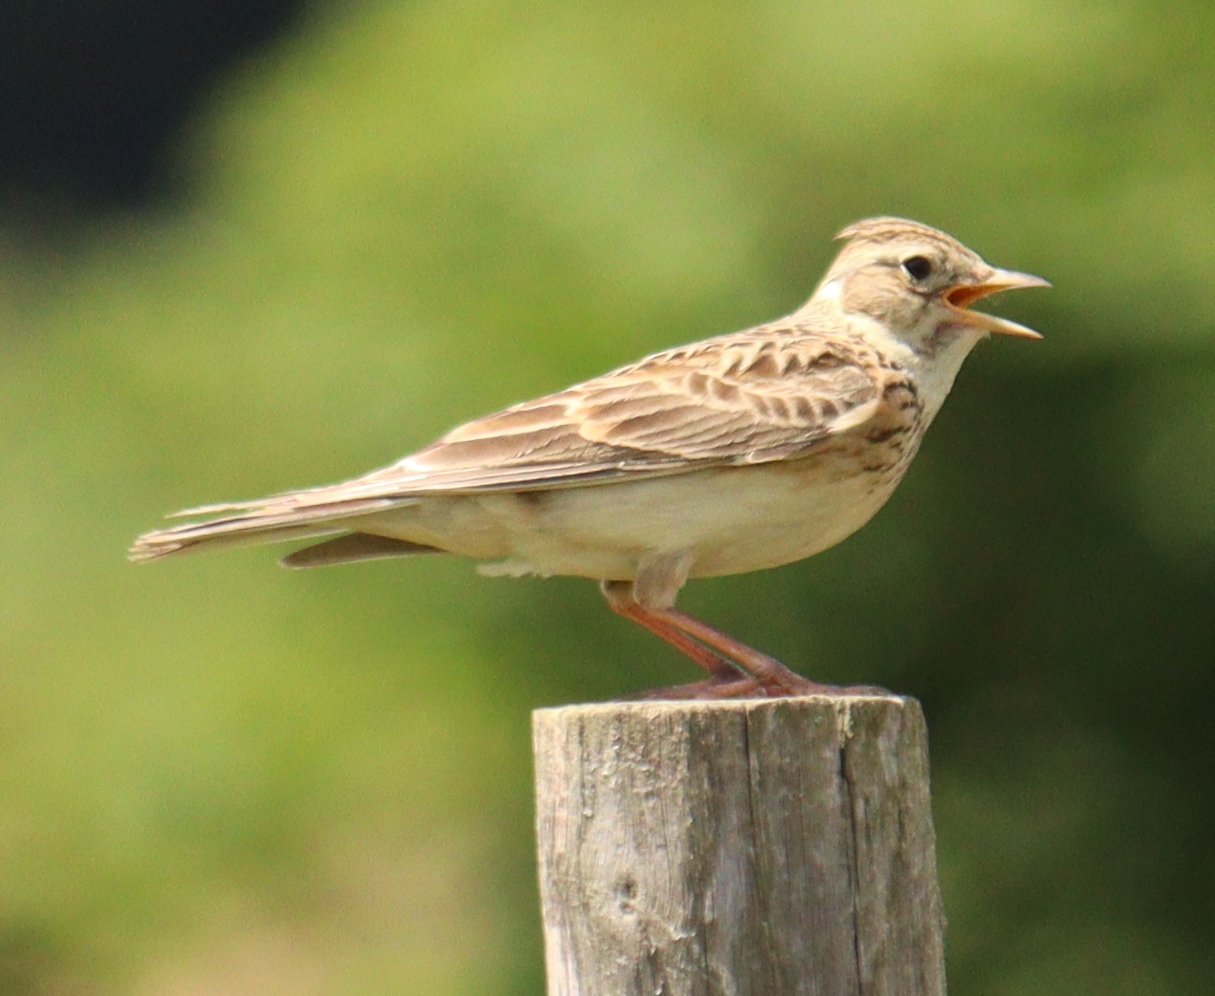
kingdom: Animalia
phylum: Chordata
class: Aves
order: Passeriformes
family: Alaudidae
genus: Alauda
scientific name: Alauda arvensis
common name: Eurasian skylark
